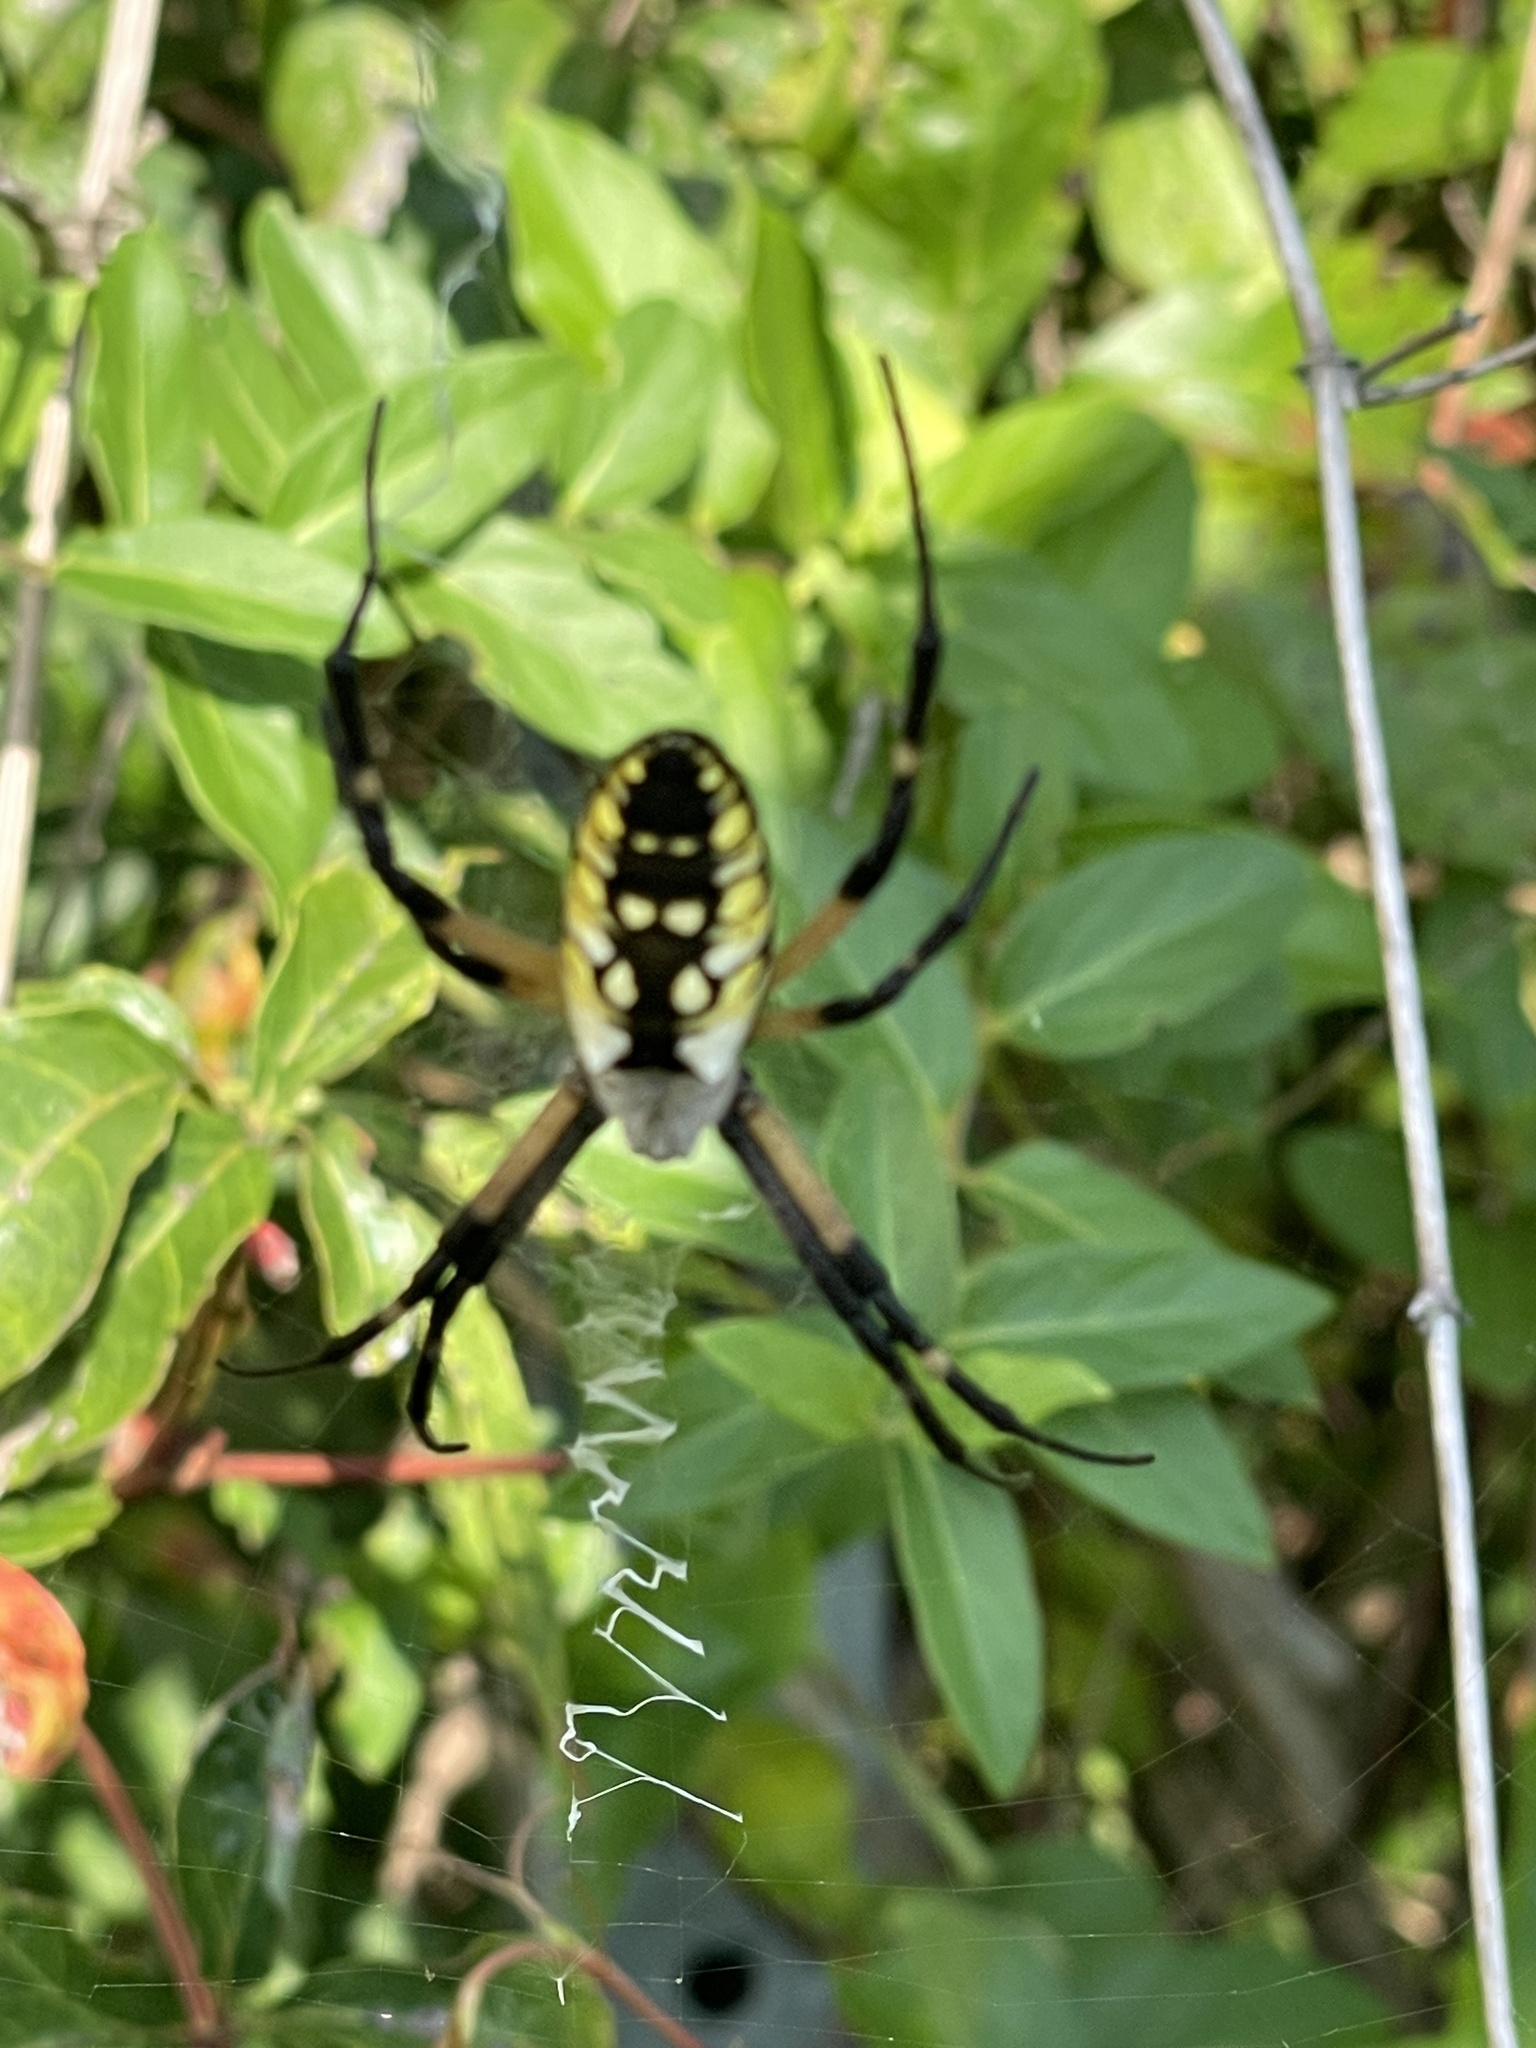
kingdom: Animalia
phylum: Arthropoda
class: Arachnida
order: Araneae
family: Araneidae
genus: Argiope
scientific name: Argiope aurantia
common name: Orb weavers
